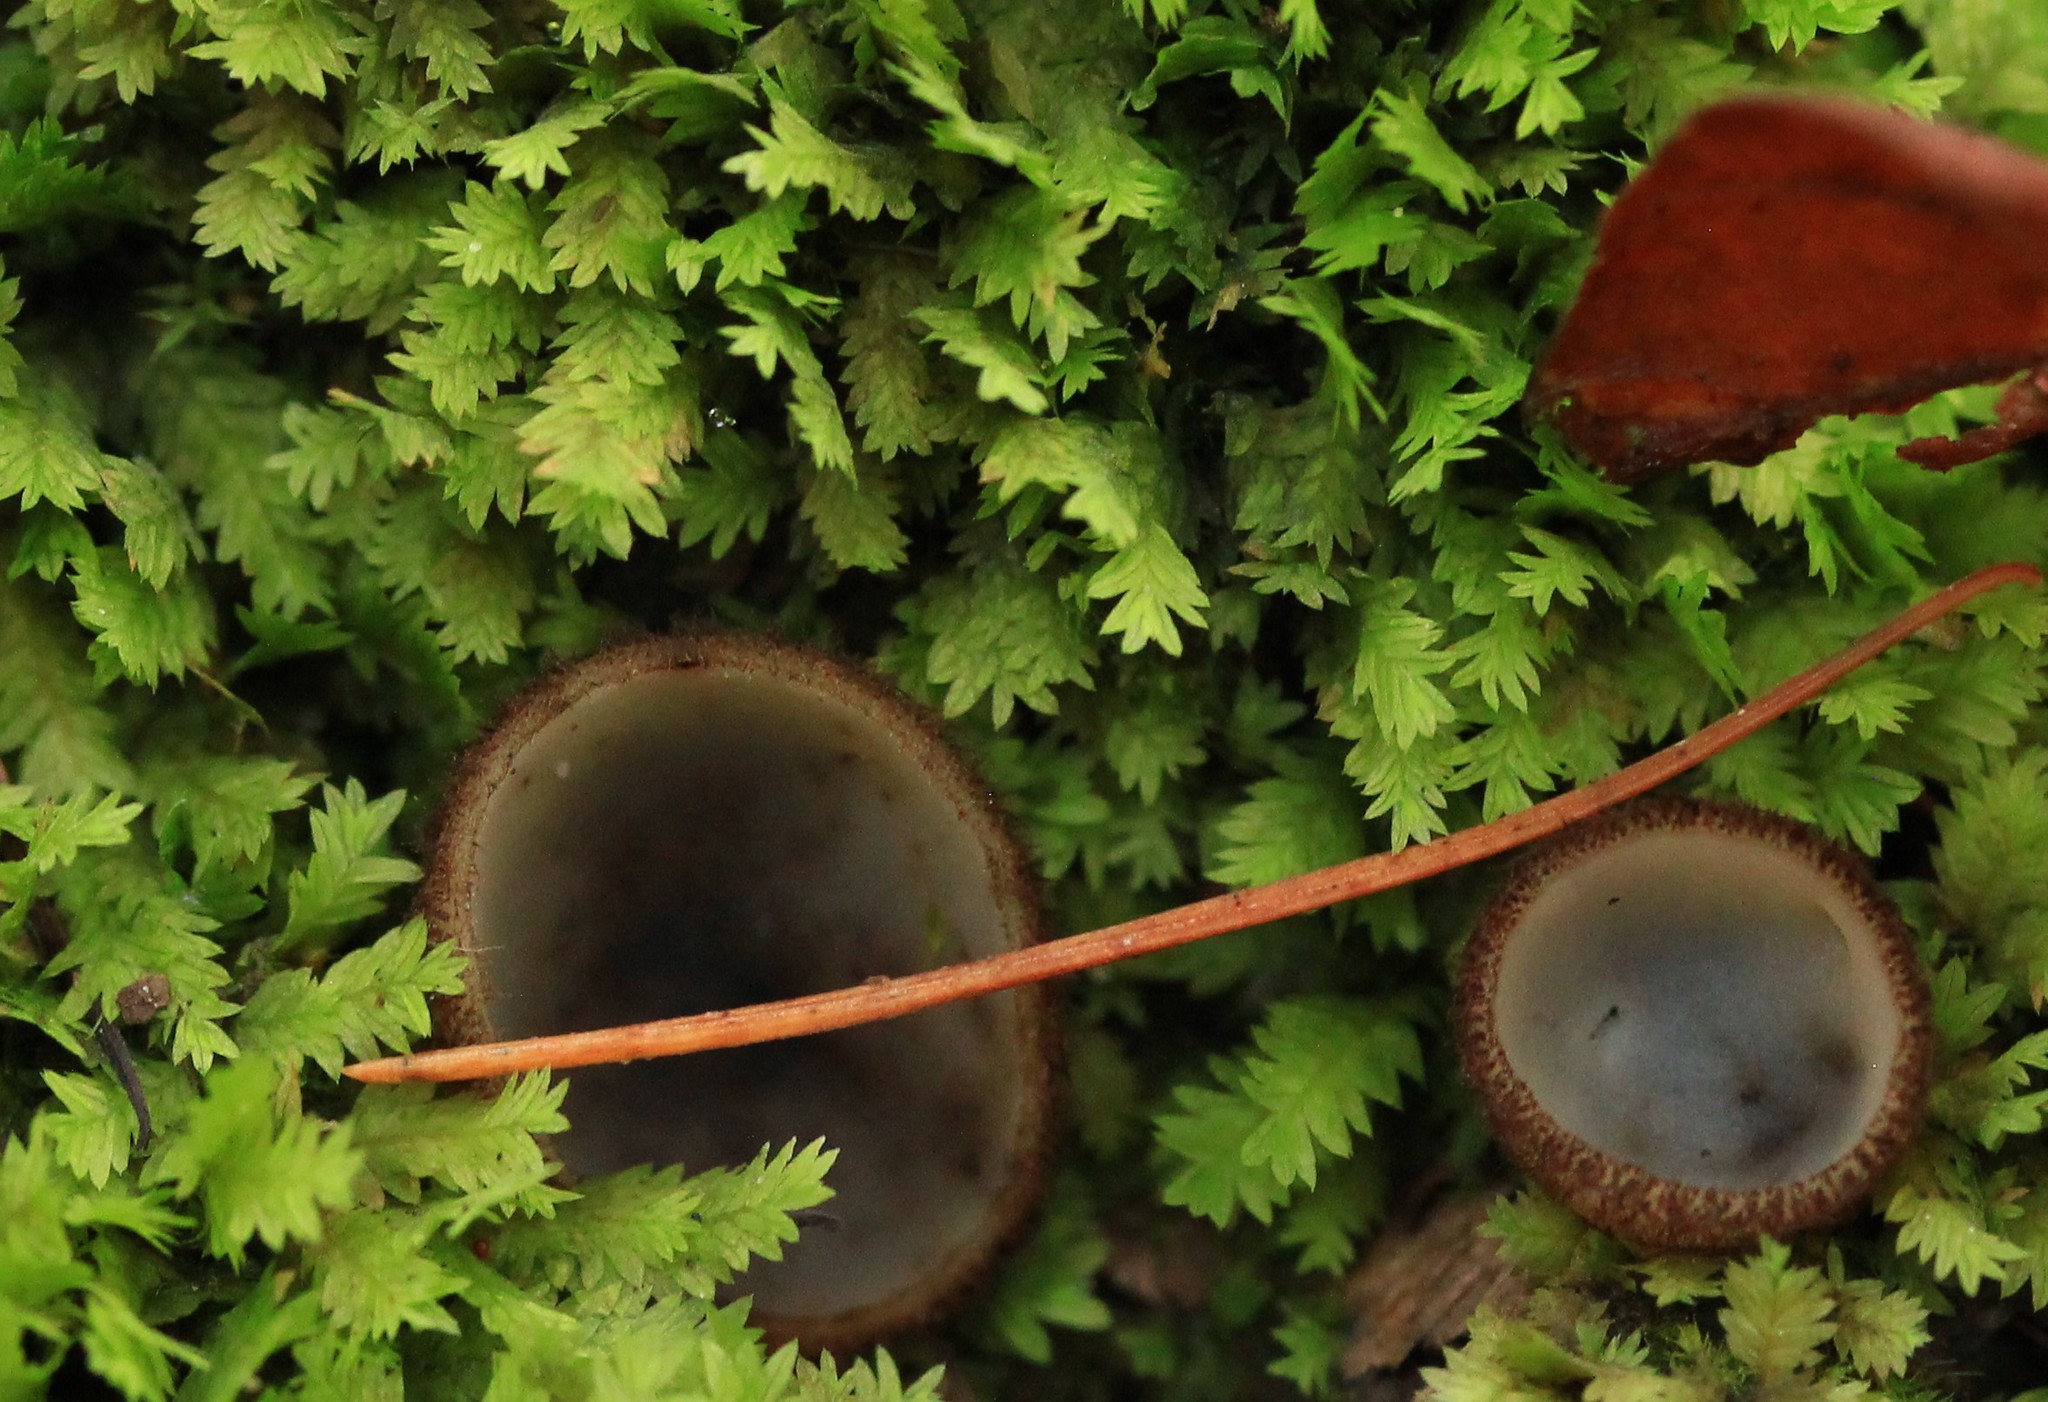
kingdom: Fungi
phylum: Ascomycota
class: Pezizomycetes
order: Pezizales
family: Pyronemataceae
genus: Humaria
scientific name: Humaria hemisphaerica
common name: Glazed cup
